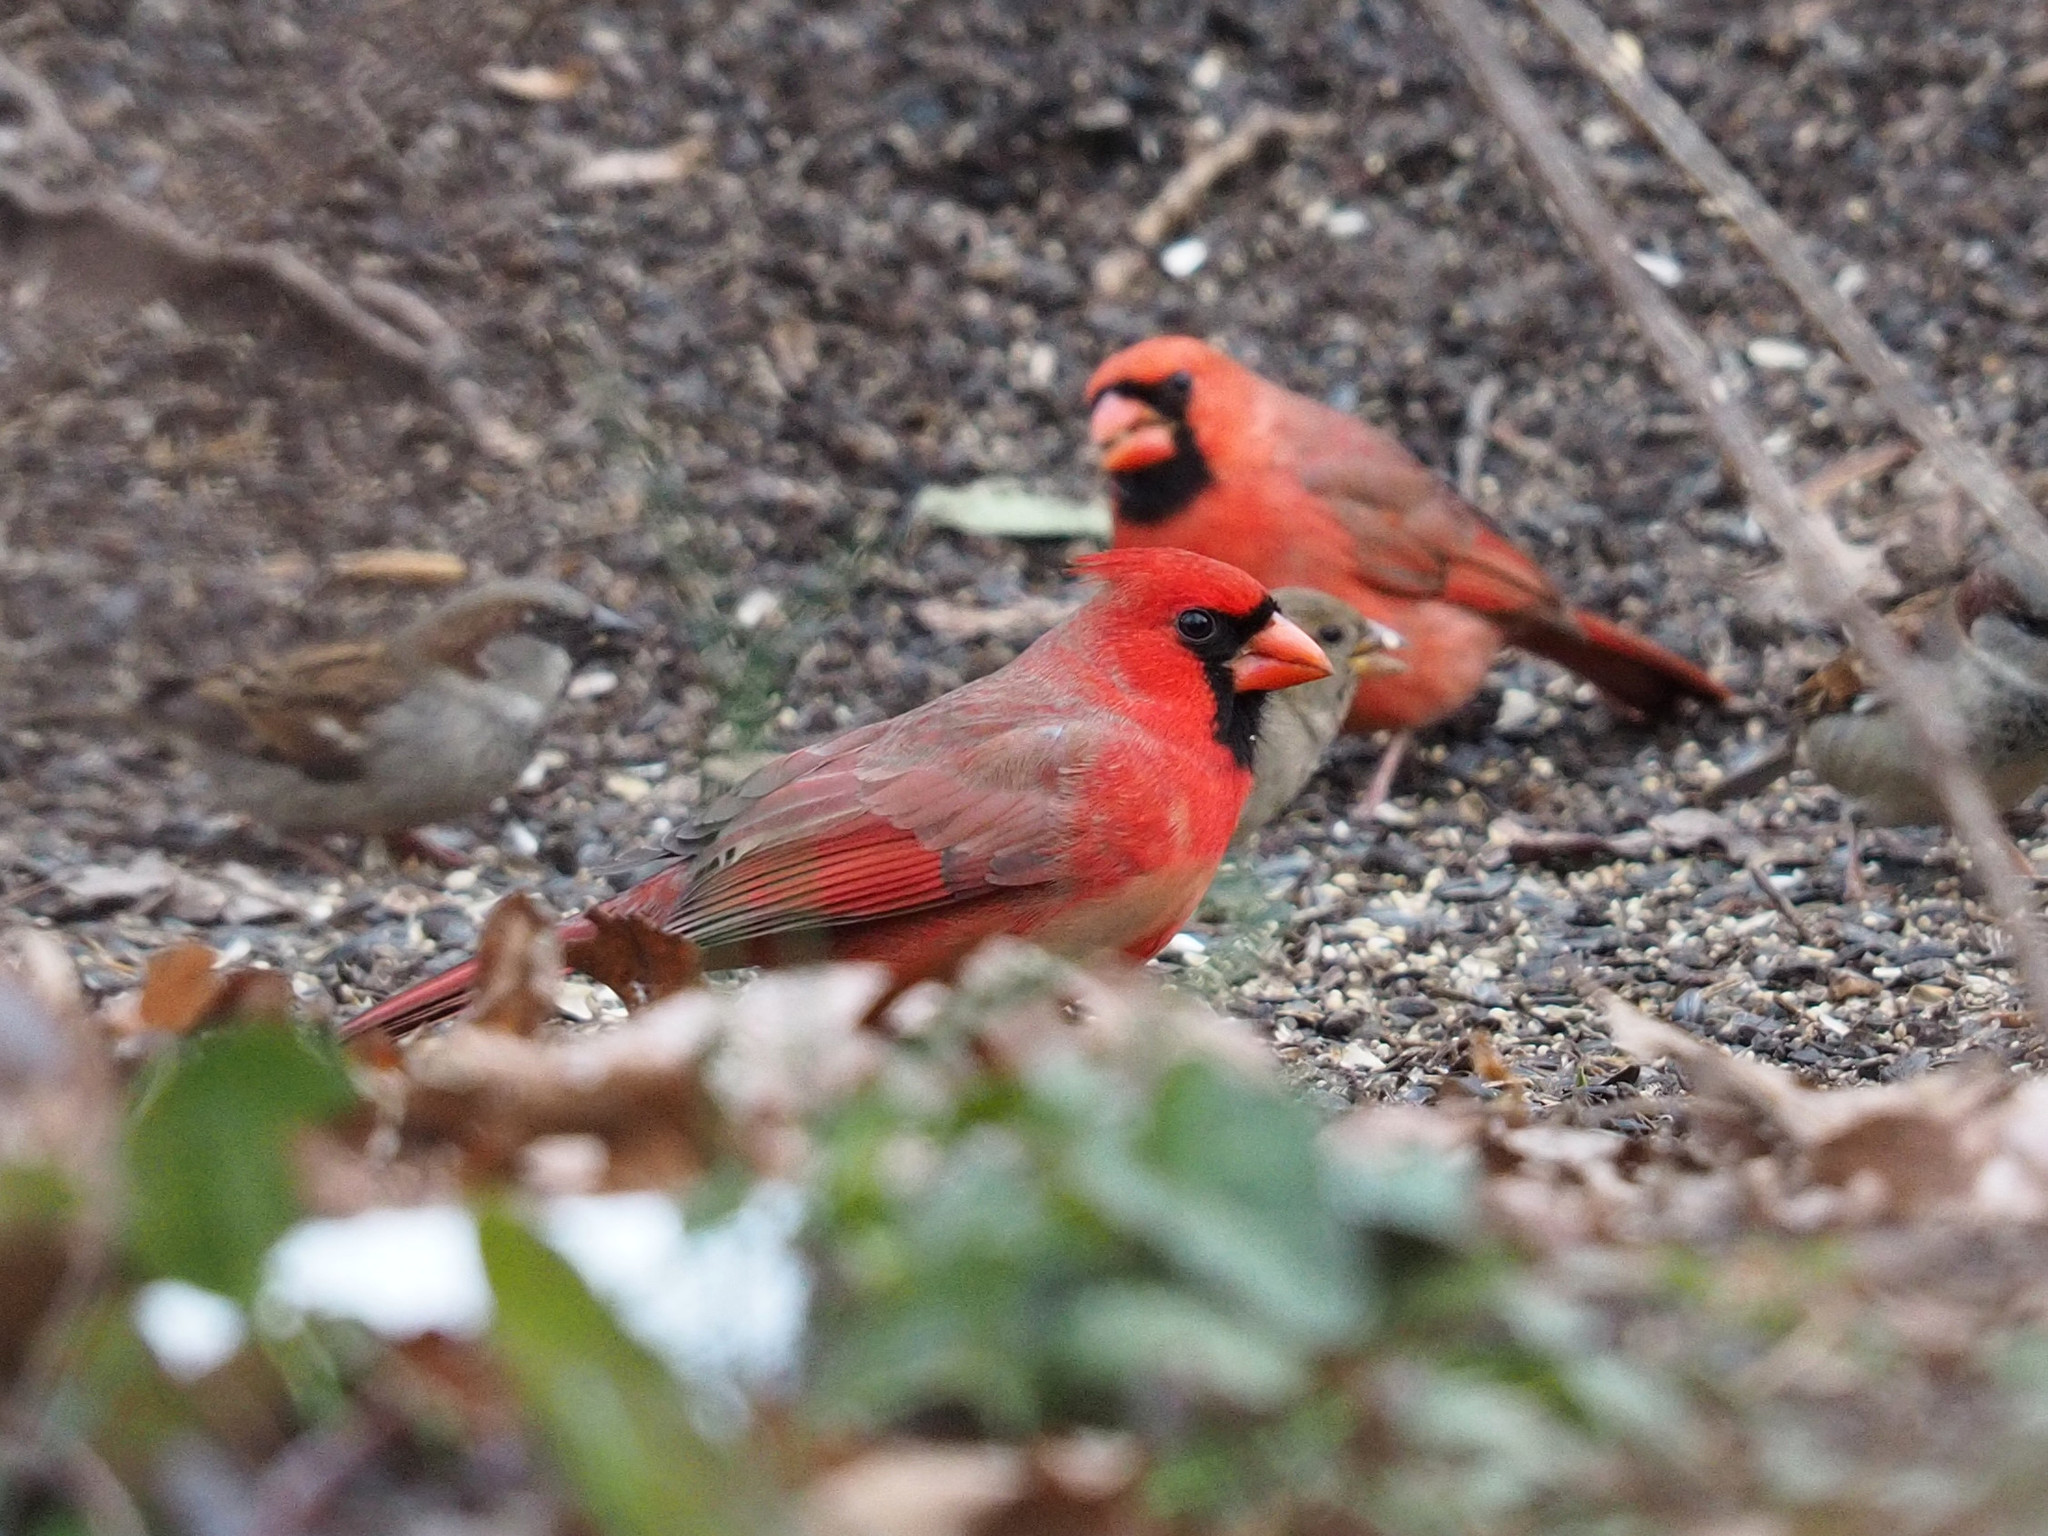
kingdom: Animalia
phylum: Chordata
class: Aves
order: Passeriformes
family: Cardinalidae
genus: Cardinalis
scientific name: Cardinalis cardinalis
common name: Northern cardinal
